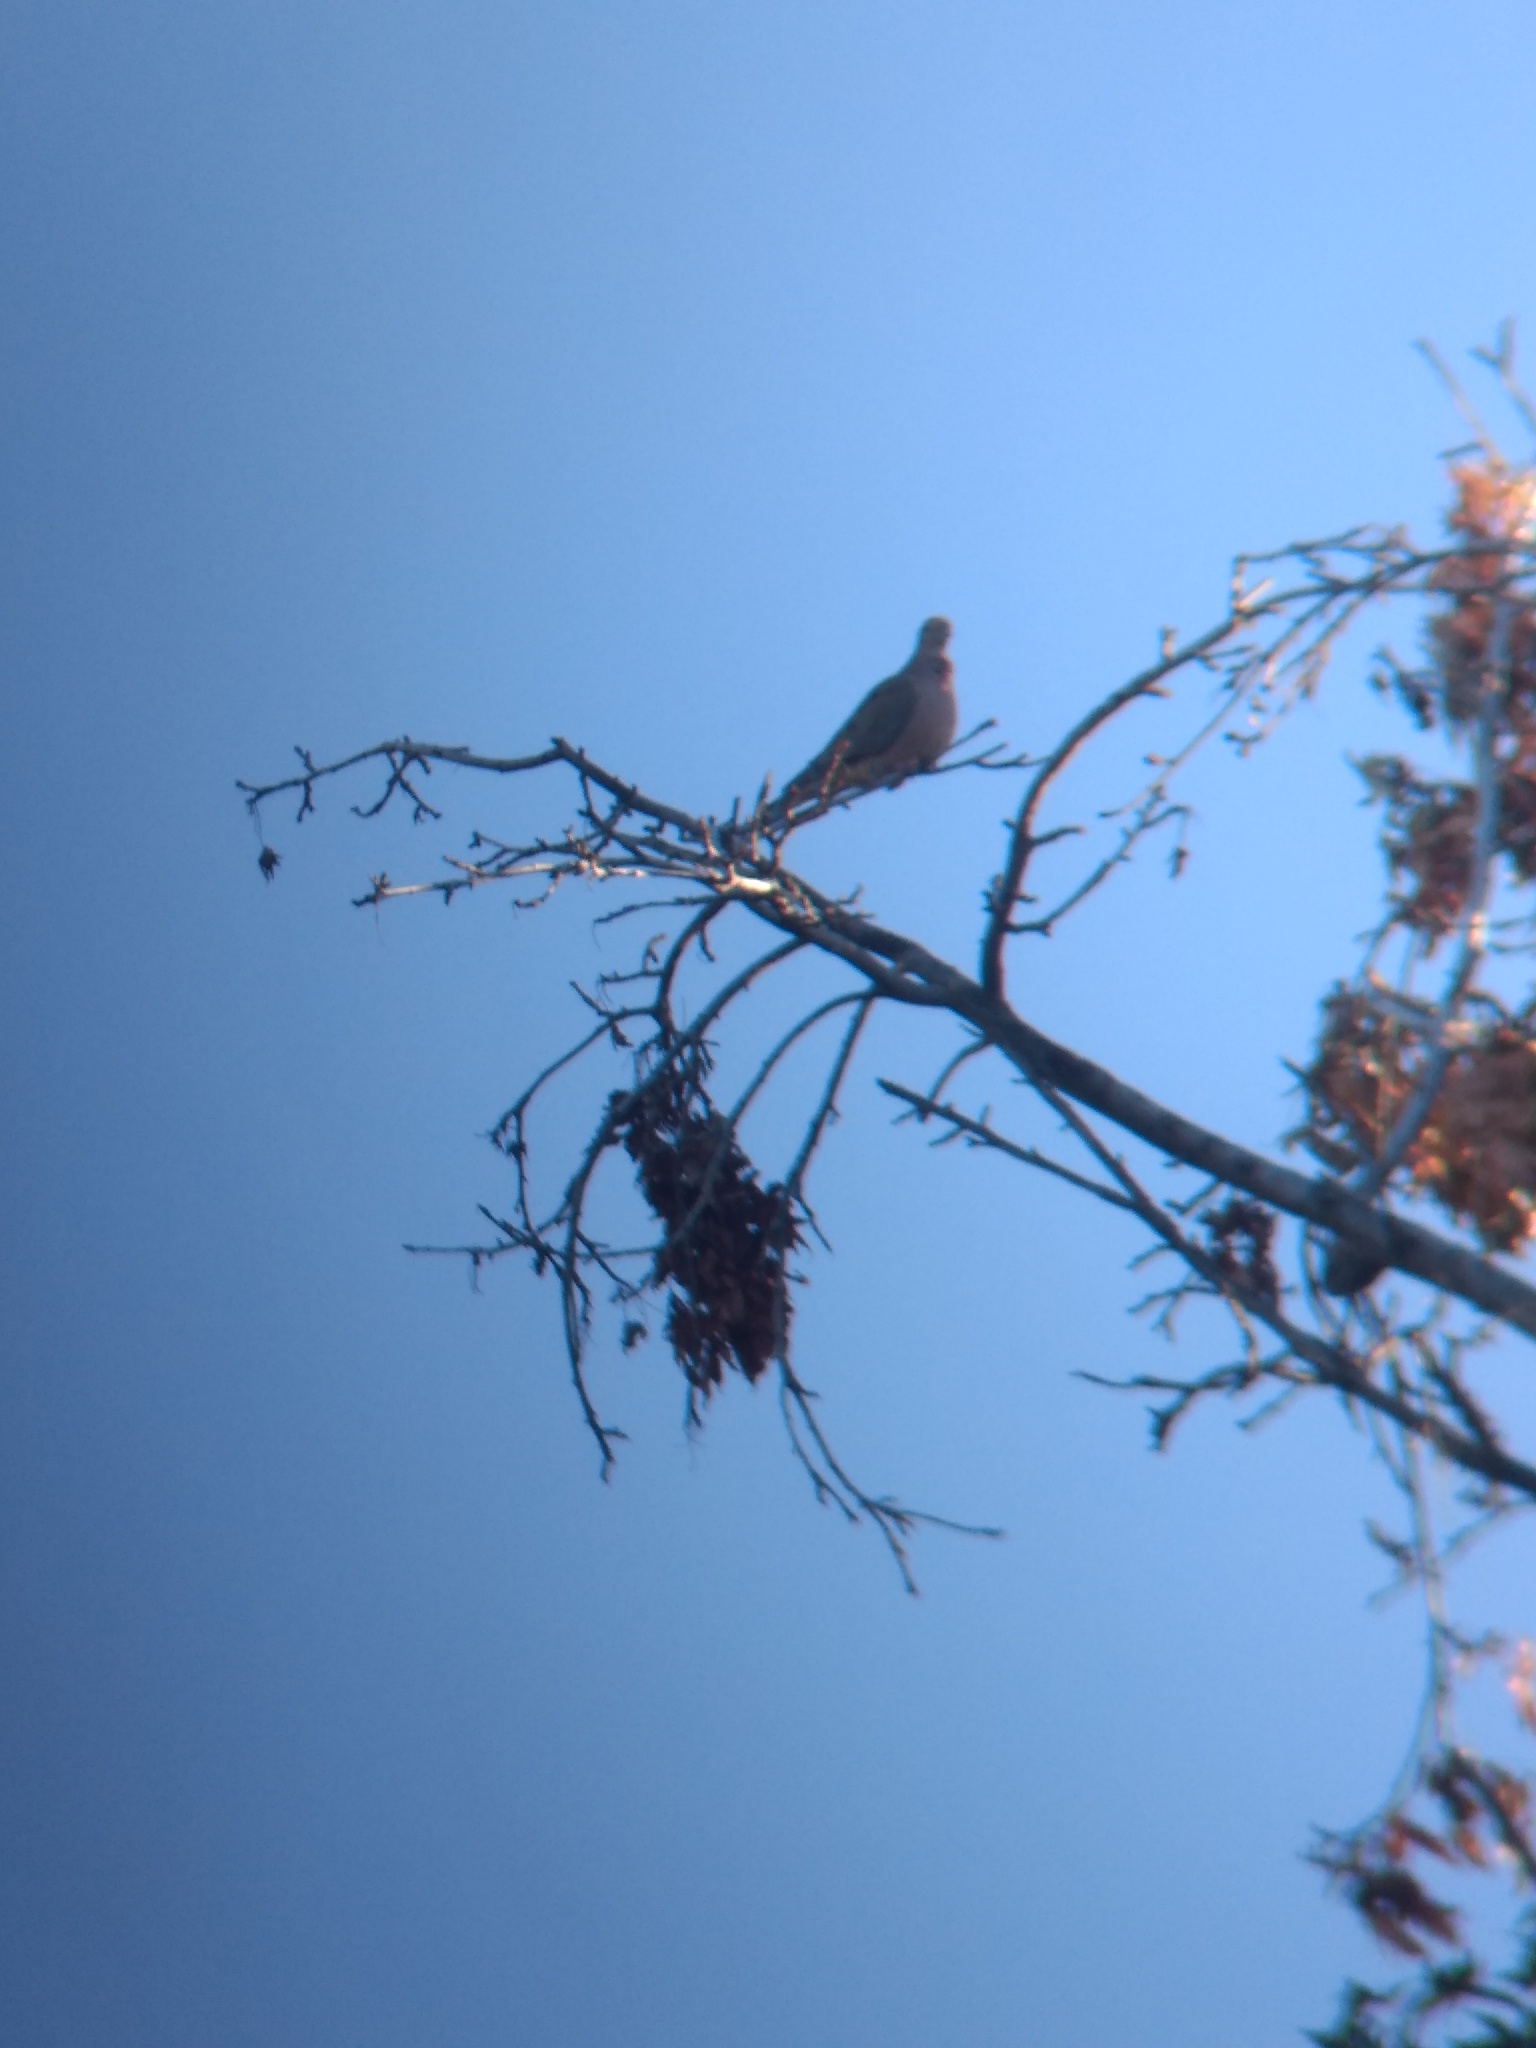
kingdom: Animalia
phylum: Chordata
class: Aves
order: Columbiformes
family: Columbidae
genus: Zenaida
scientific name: Zenaida macroura
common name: Mourning dove
